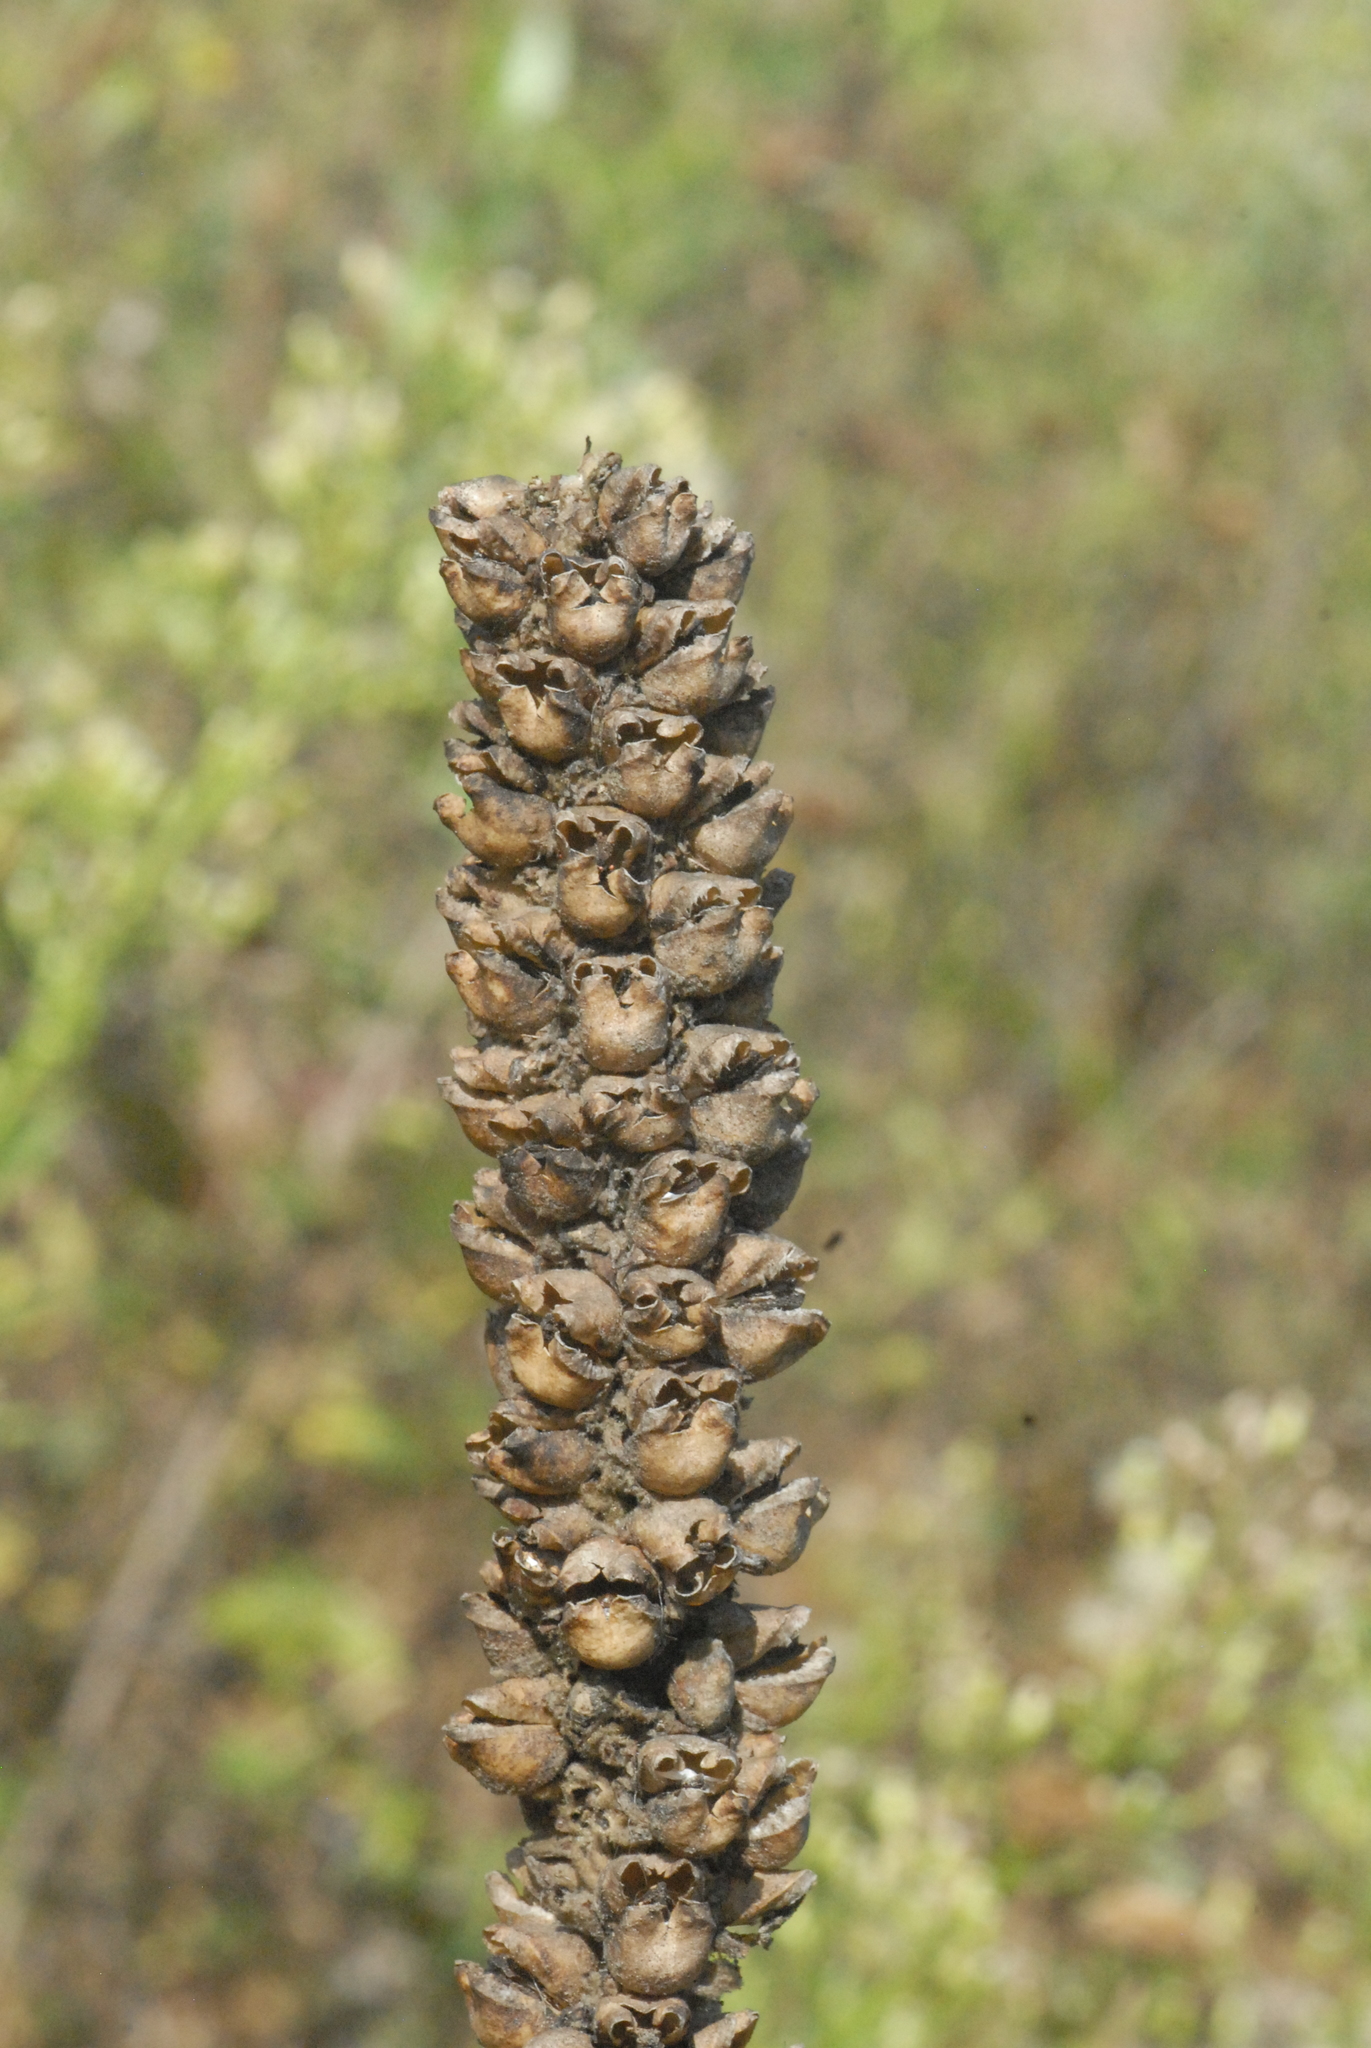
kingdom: Plantae
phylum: Tracheophyta
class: Magnoliopsida
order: Lamiales
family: Scrophulariaceae
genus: Verbascum
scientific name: Verbascum thapsus
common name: Common mullein
